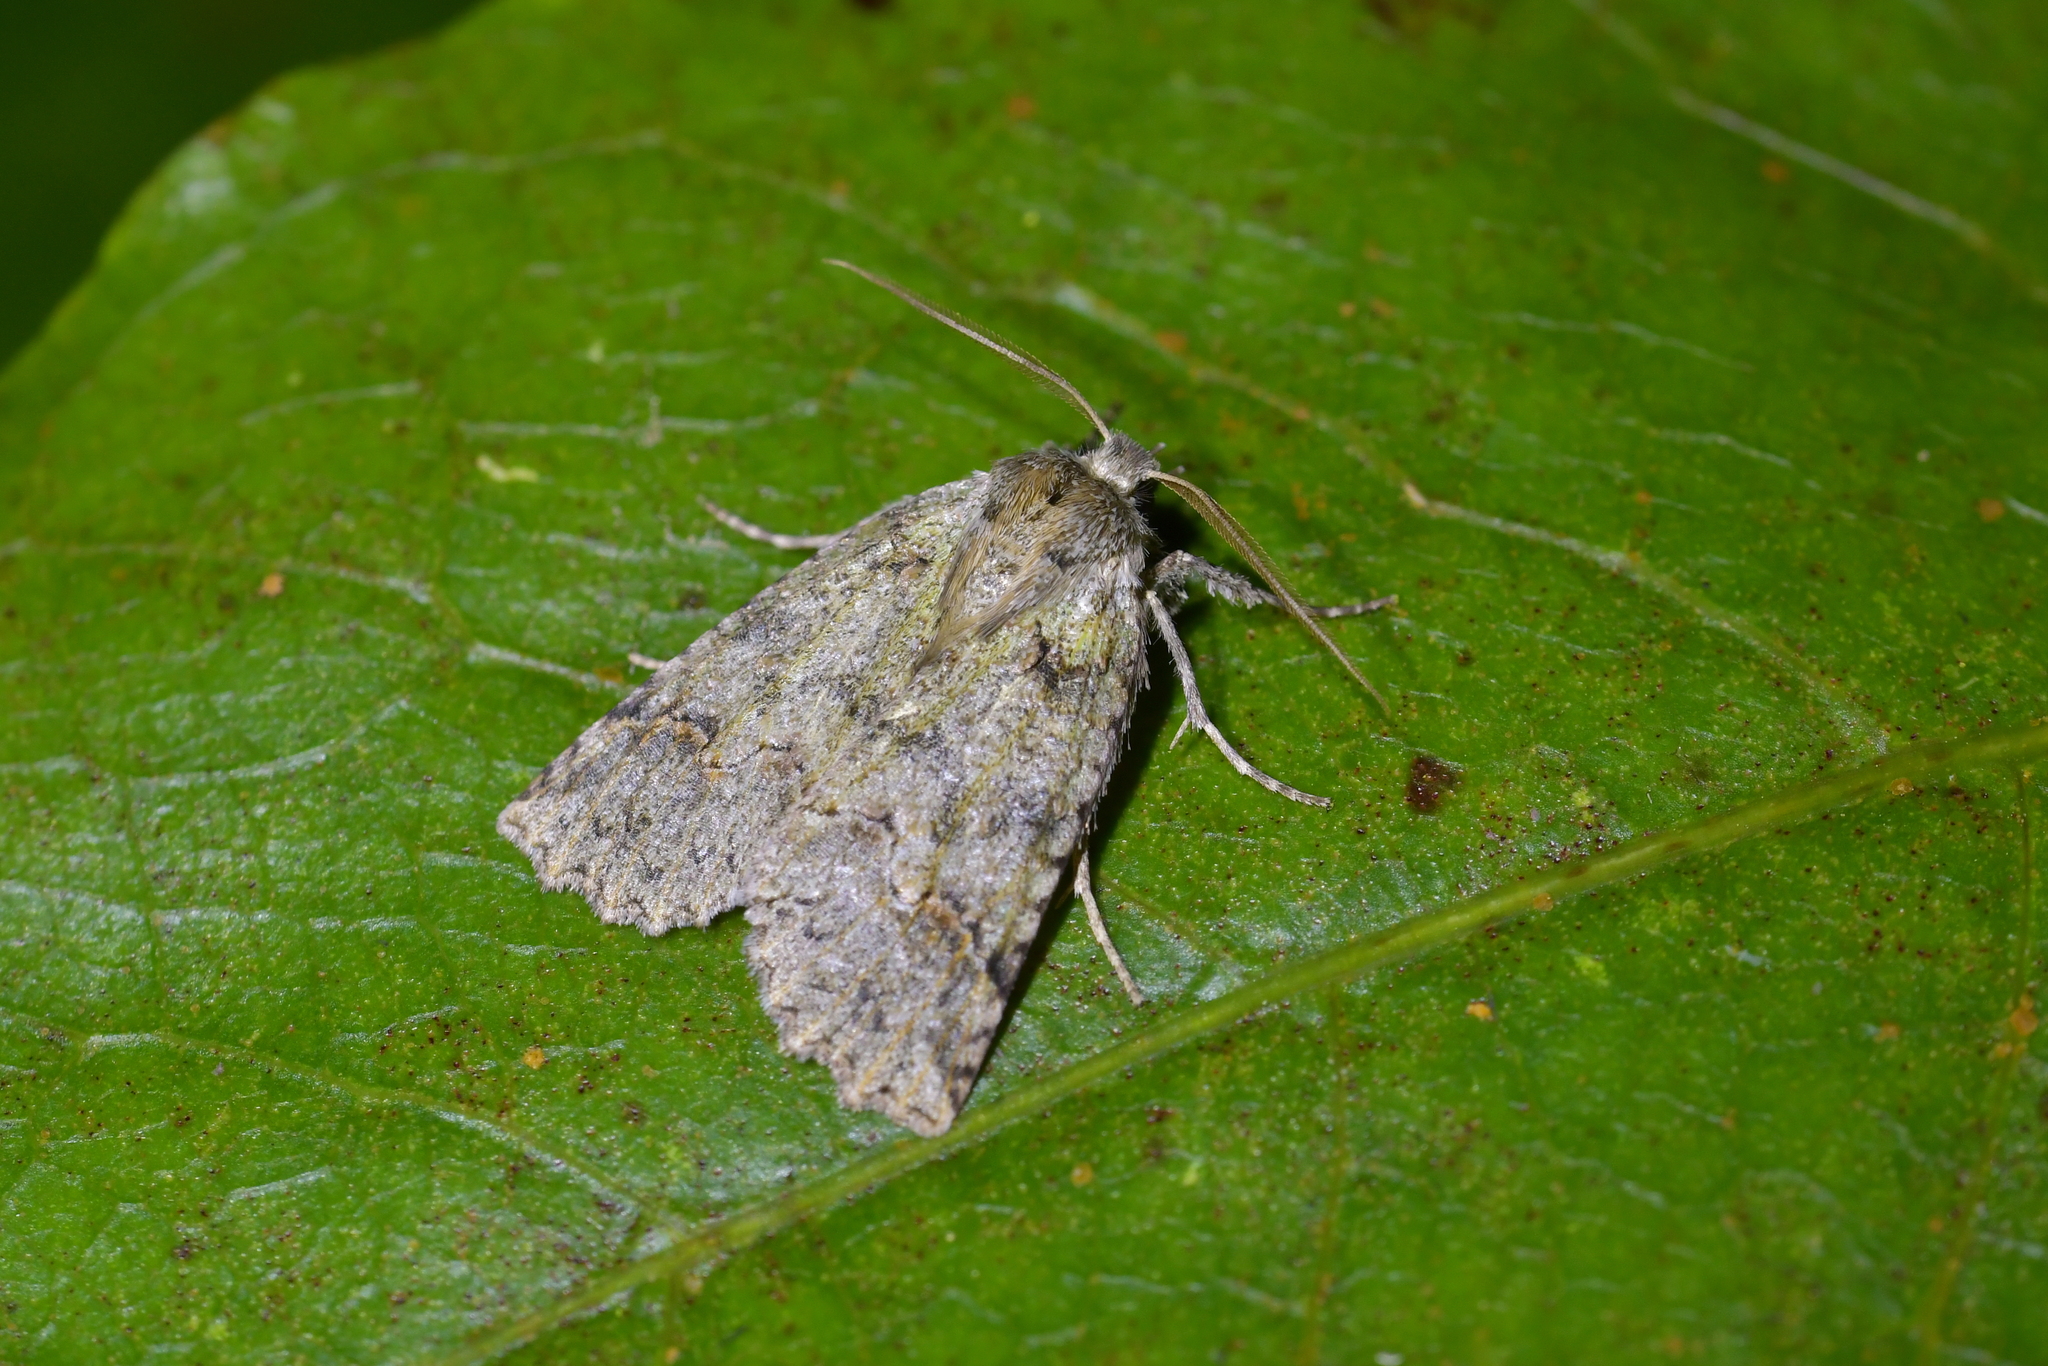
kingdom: Animalia
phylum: Arthropoda
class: Insecta
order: Lepidoptera
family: Geometridae
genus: Declana
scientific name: Declana floccosa
